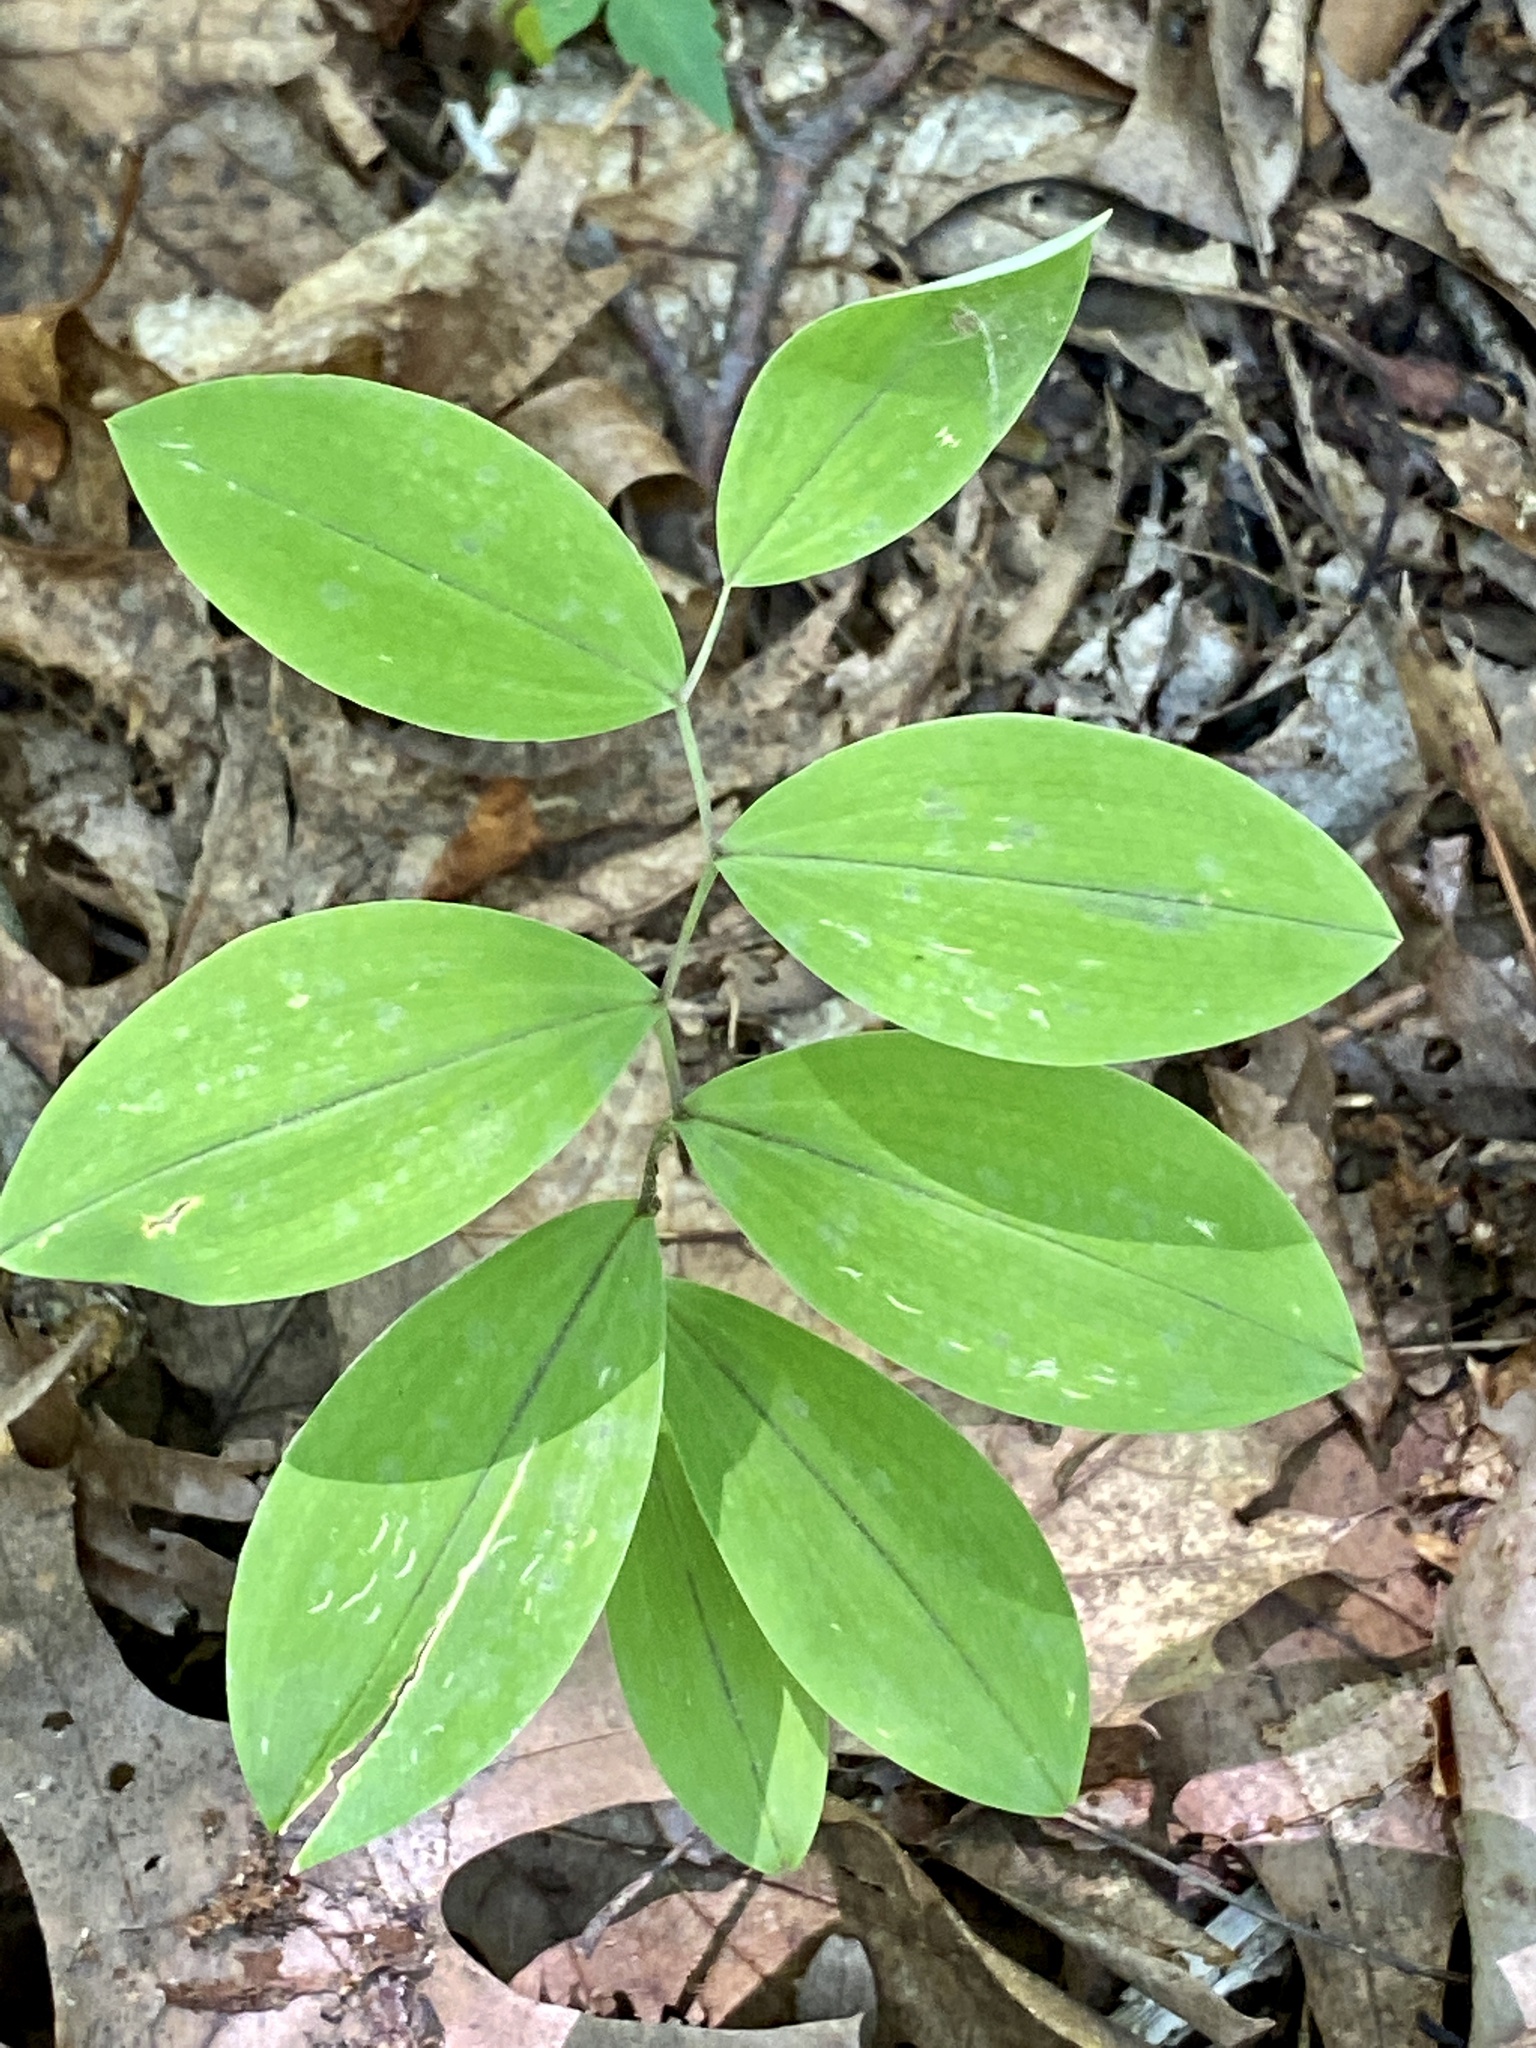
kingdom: Plantae
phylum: Tracheophyta
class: Liliopsida
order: Liliales
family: Colchicaceae
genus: Uvularia
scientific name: Uvularia sessilifolia
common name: Straw-lily
